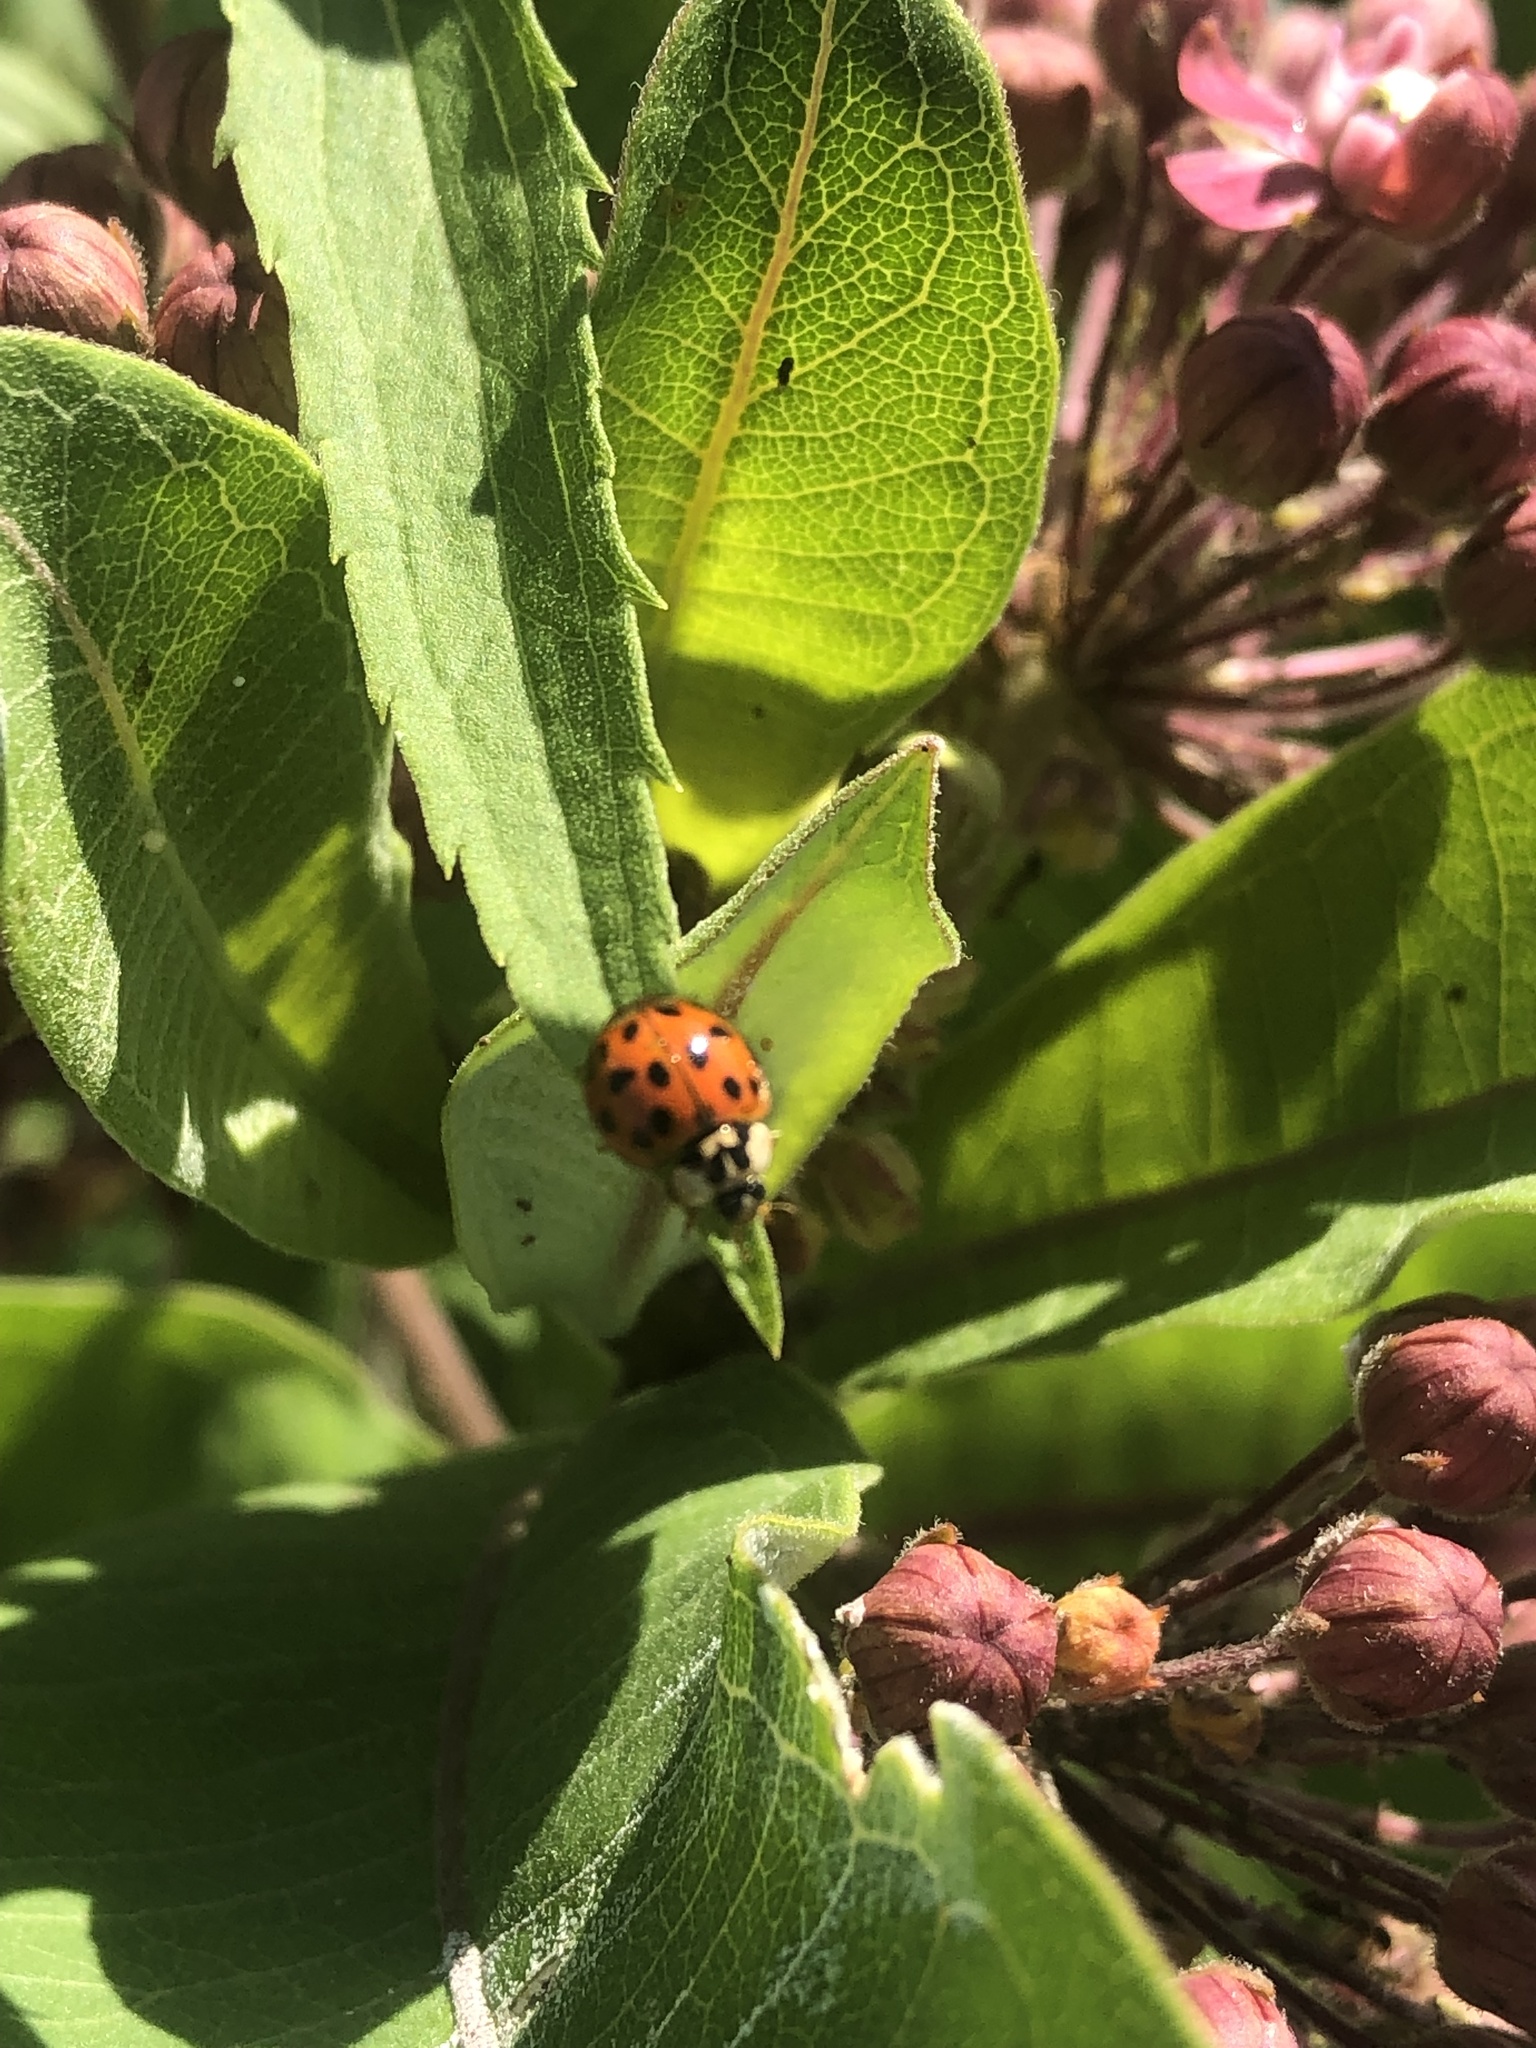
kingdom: Animalia
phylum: Arthropoda
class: Insecta
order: Coleoptera
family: Coccinellidae
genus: Harmonia
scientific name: Harmonia axyridis
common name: Harlequin ladybird
